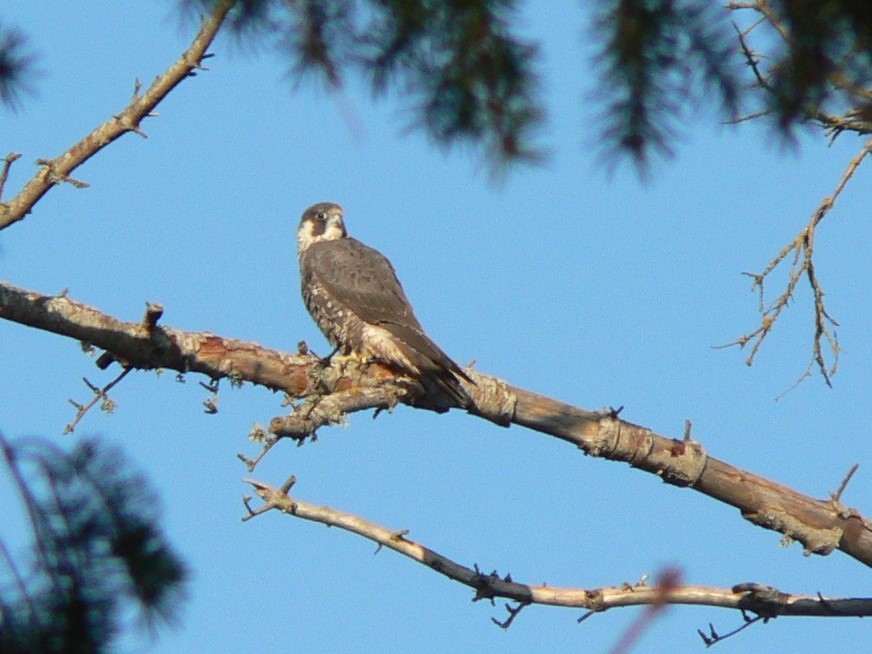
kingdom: Animalia
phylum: Chordata
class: Aves
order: Falconiformes
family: Falconidae
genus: Falco
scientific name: Falco peregrinus
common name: Peregrine falcon
